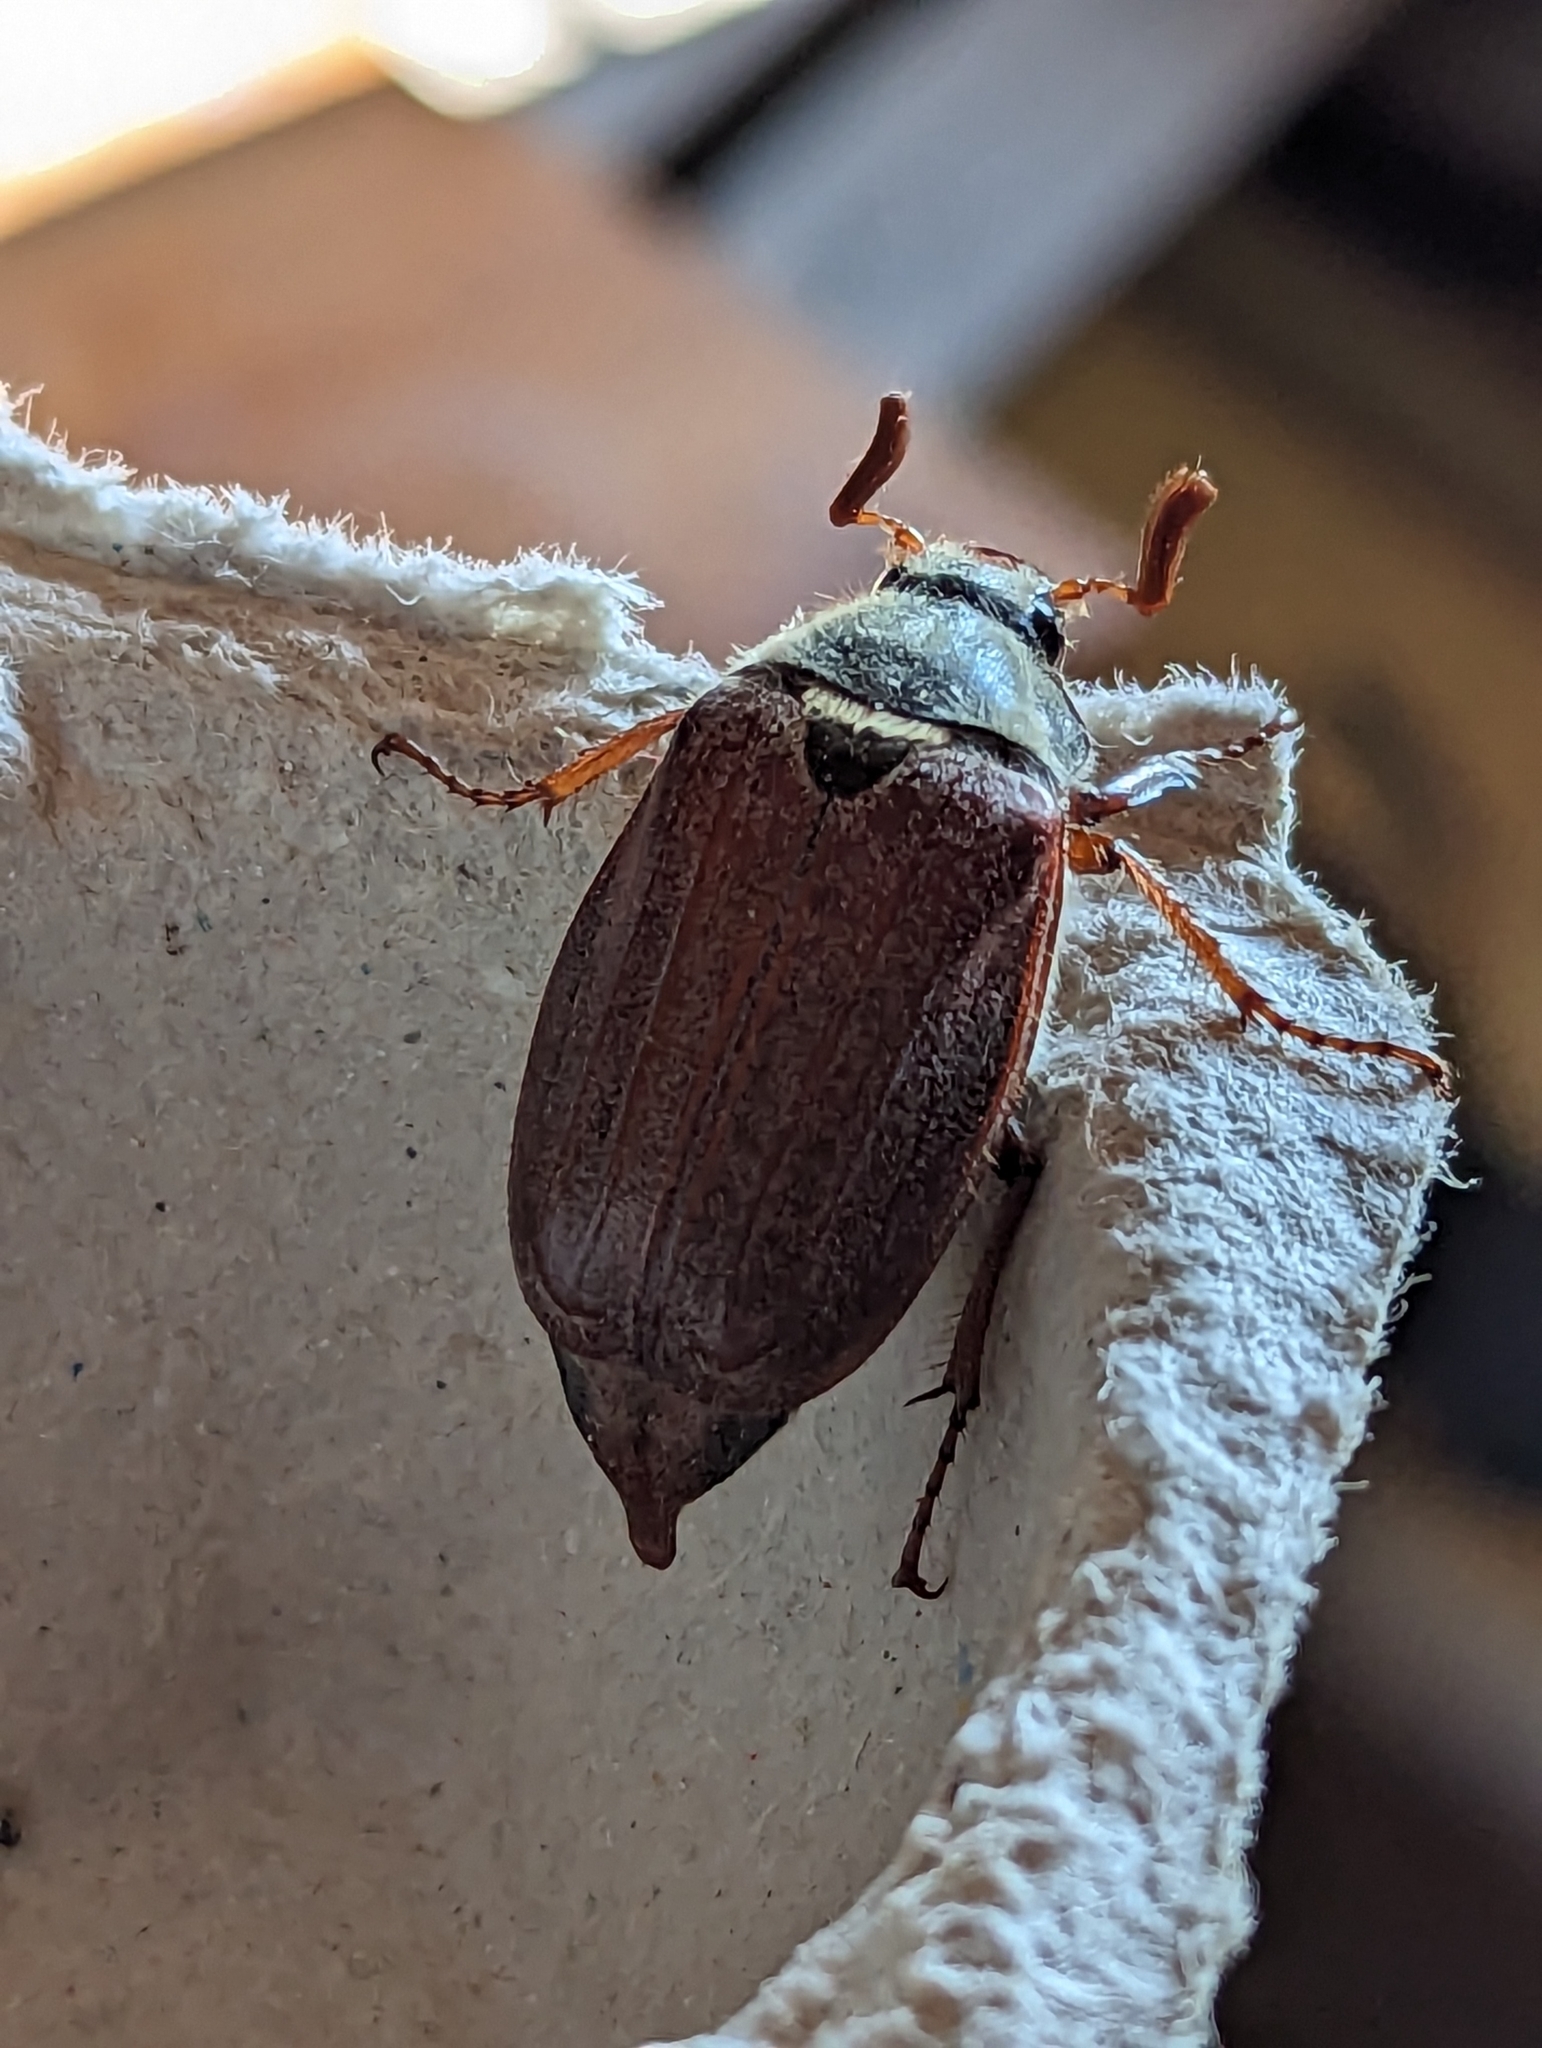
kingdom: Animalia
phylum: Arthropoda
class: Insecta
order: Coleoptera
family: Scarabaeidae
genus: Melolontha
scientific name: Melolontha melolontha
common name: Cockchafer maybeetle
